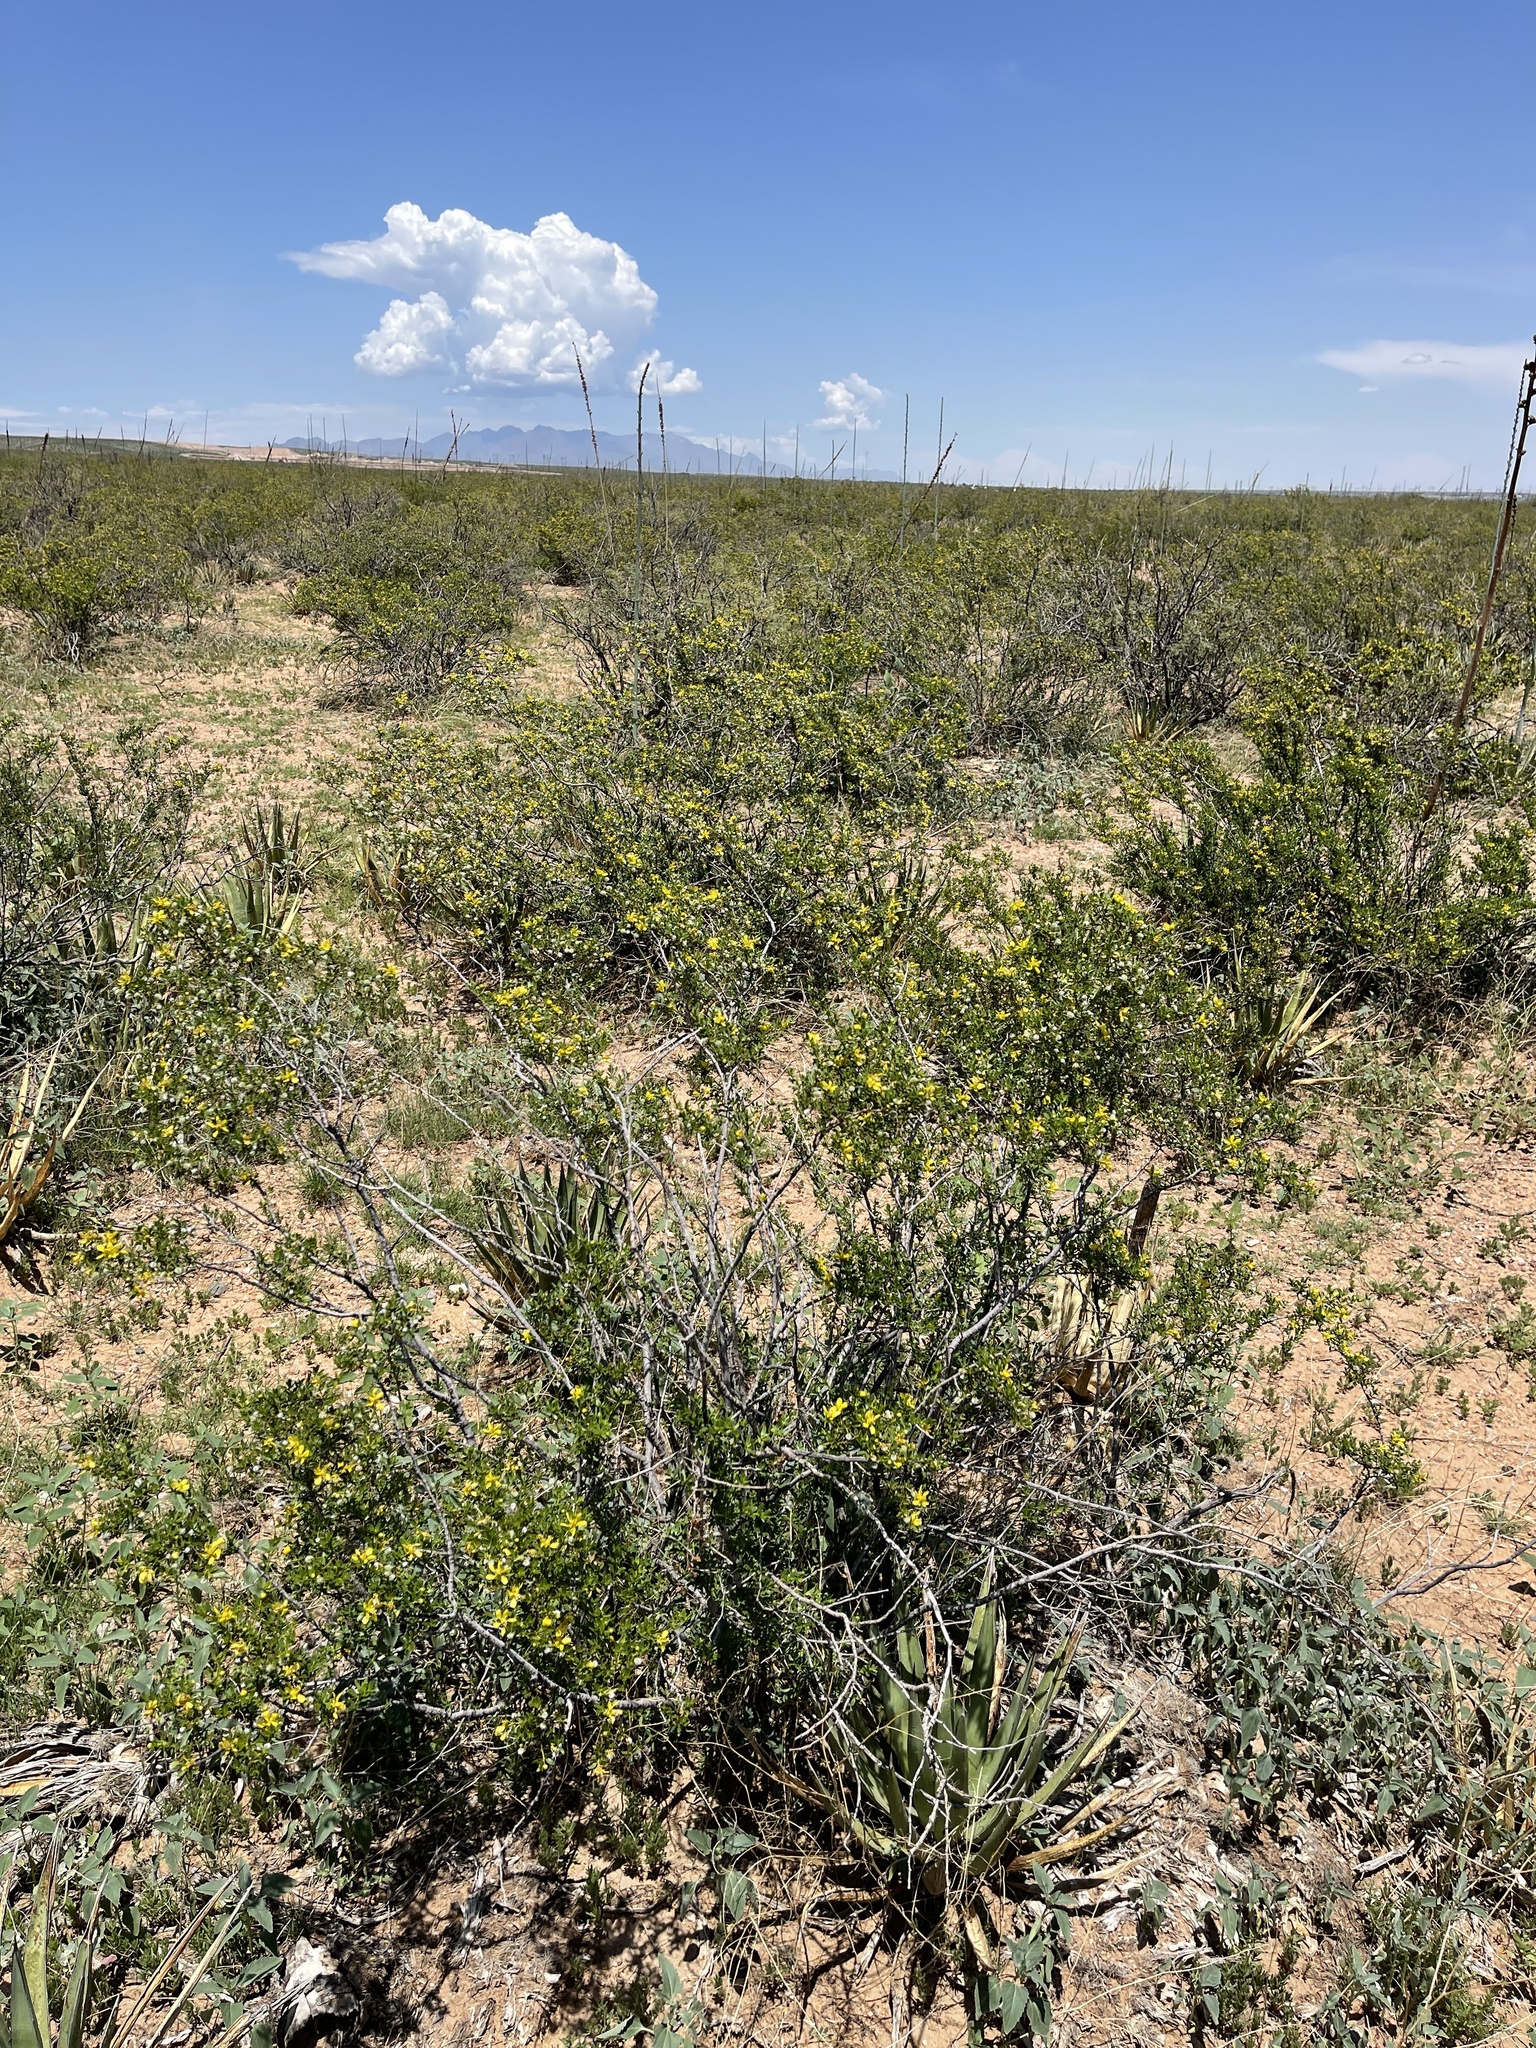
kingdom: Plantae
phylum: Tracheophyta
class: Magnoliopsida
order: Zygophyllales
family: Zygophyllaceae
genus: Larrea
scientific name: Larrea tridentata
